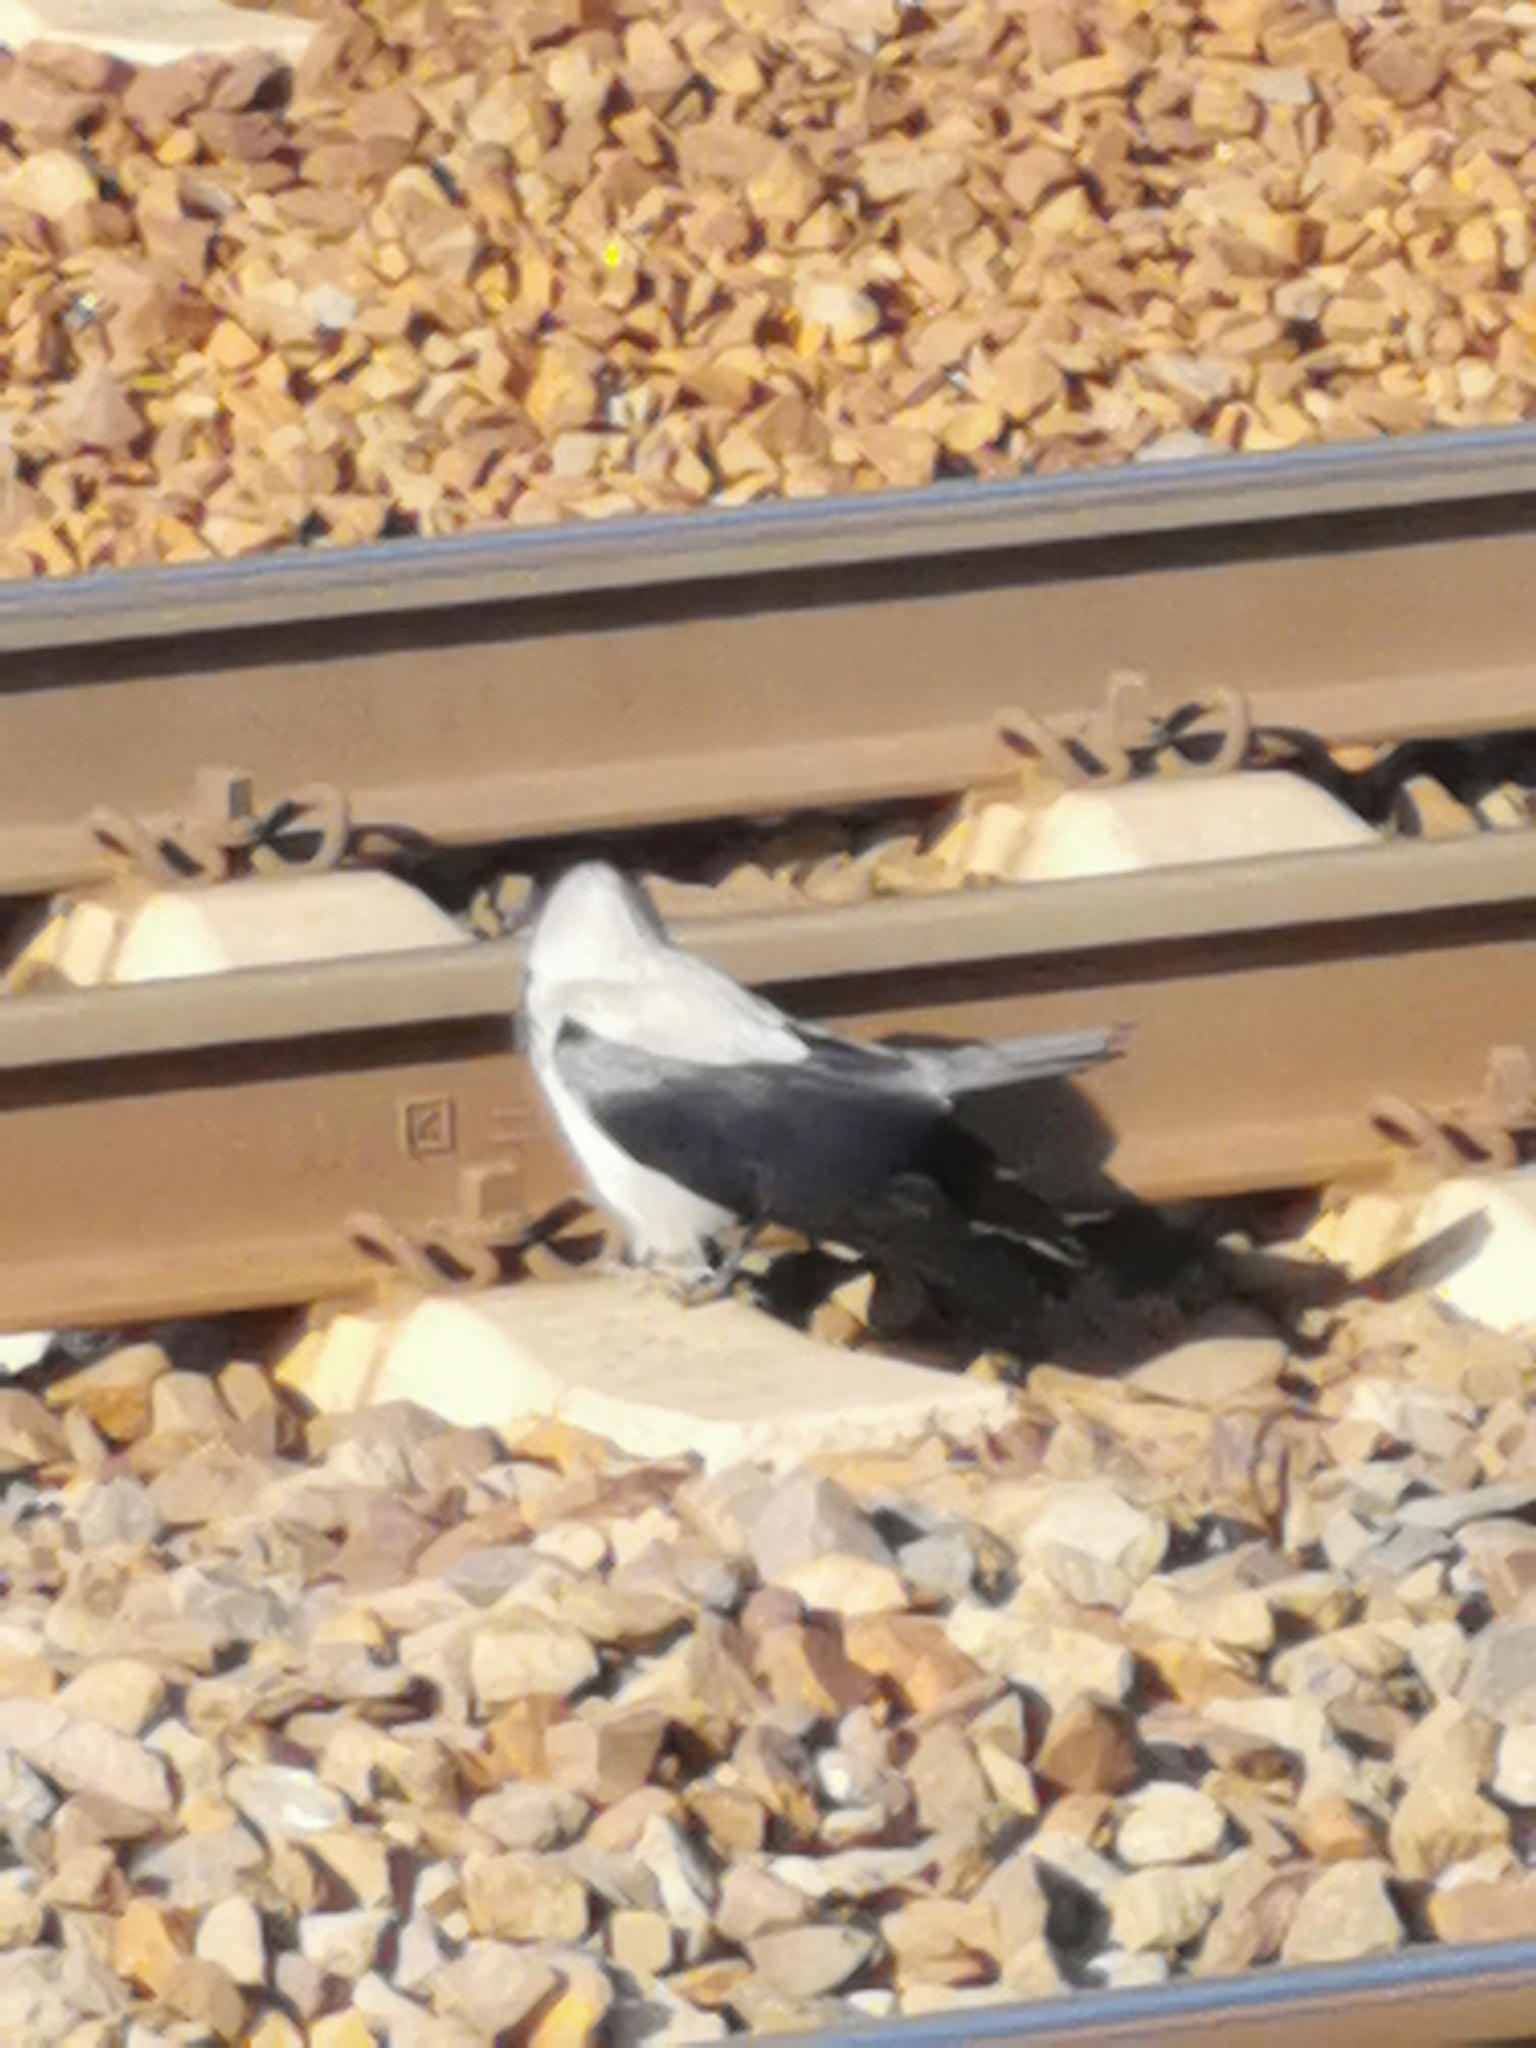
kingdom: Animalia
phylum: Chordata
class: Aves
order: Passeriformes
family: Corvidae
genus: Corvus
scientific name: Corvus cornix
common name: Hooded crow
